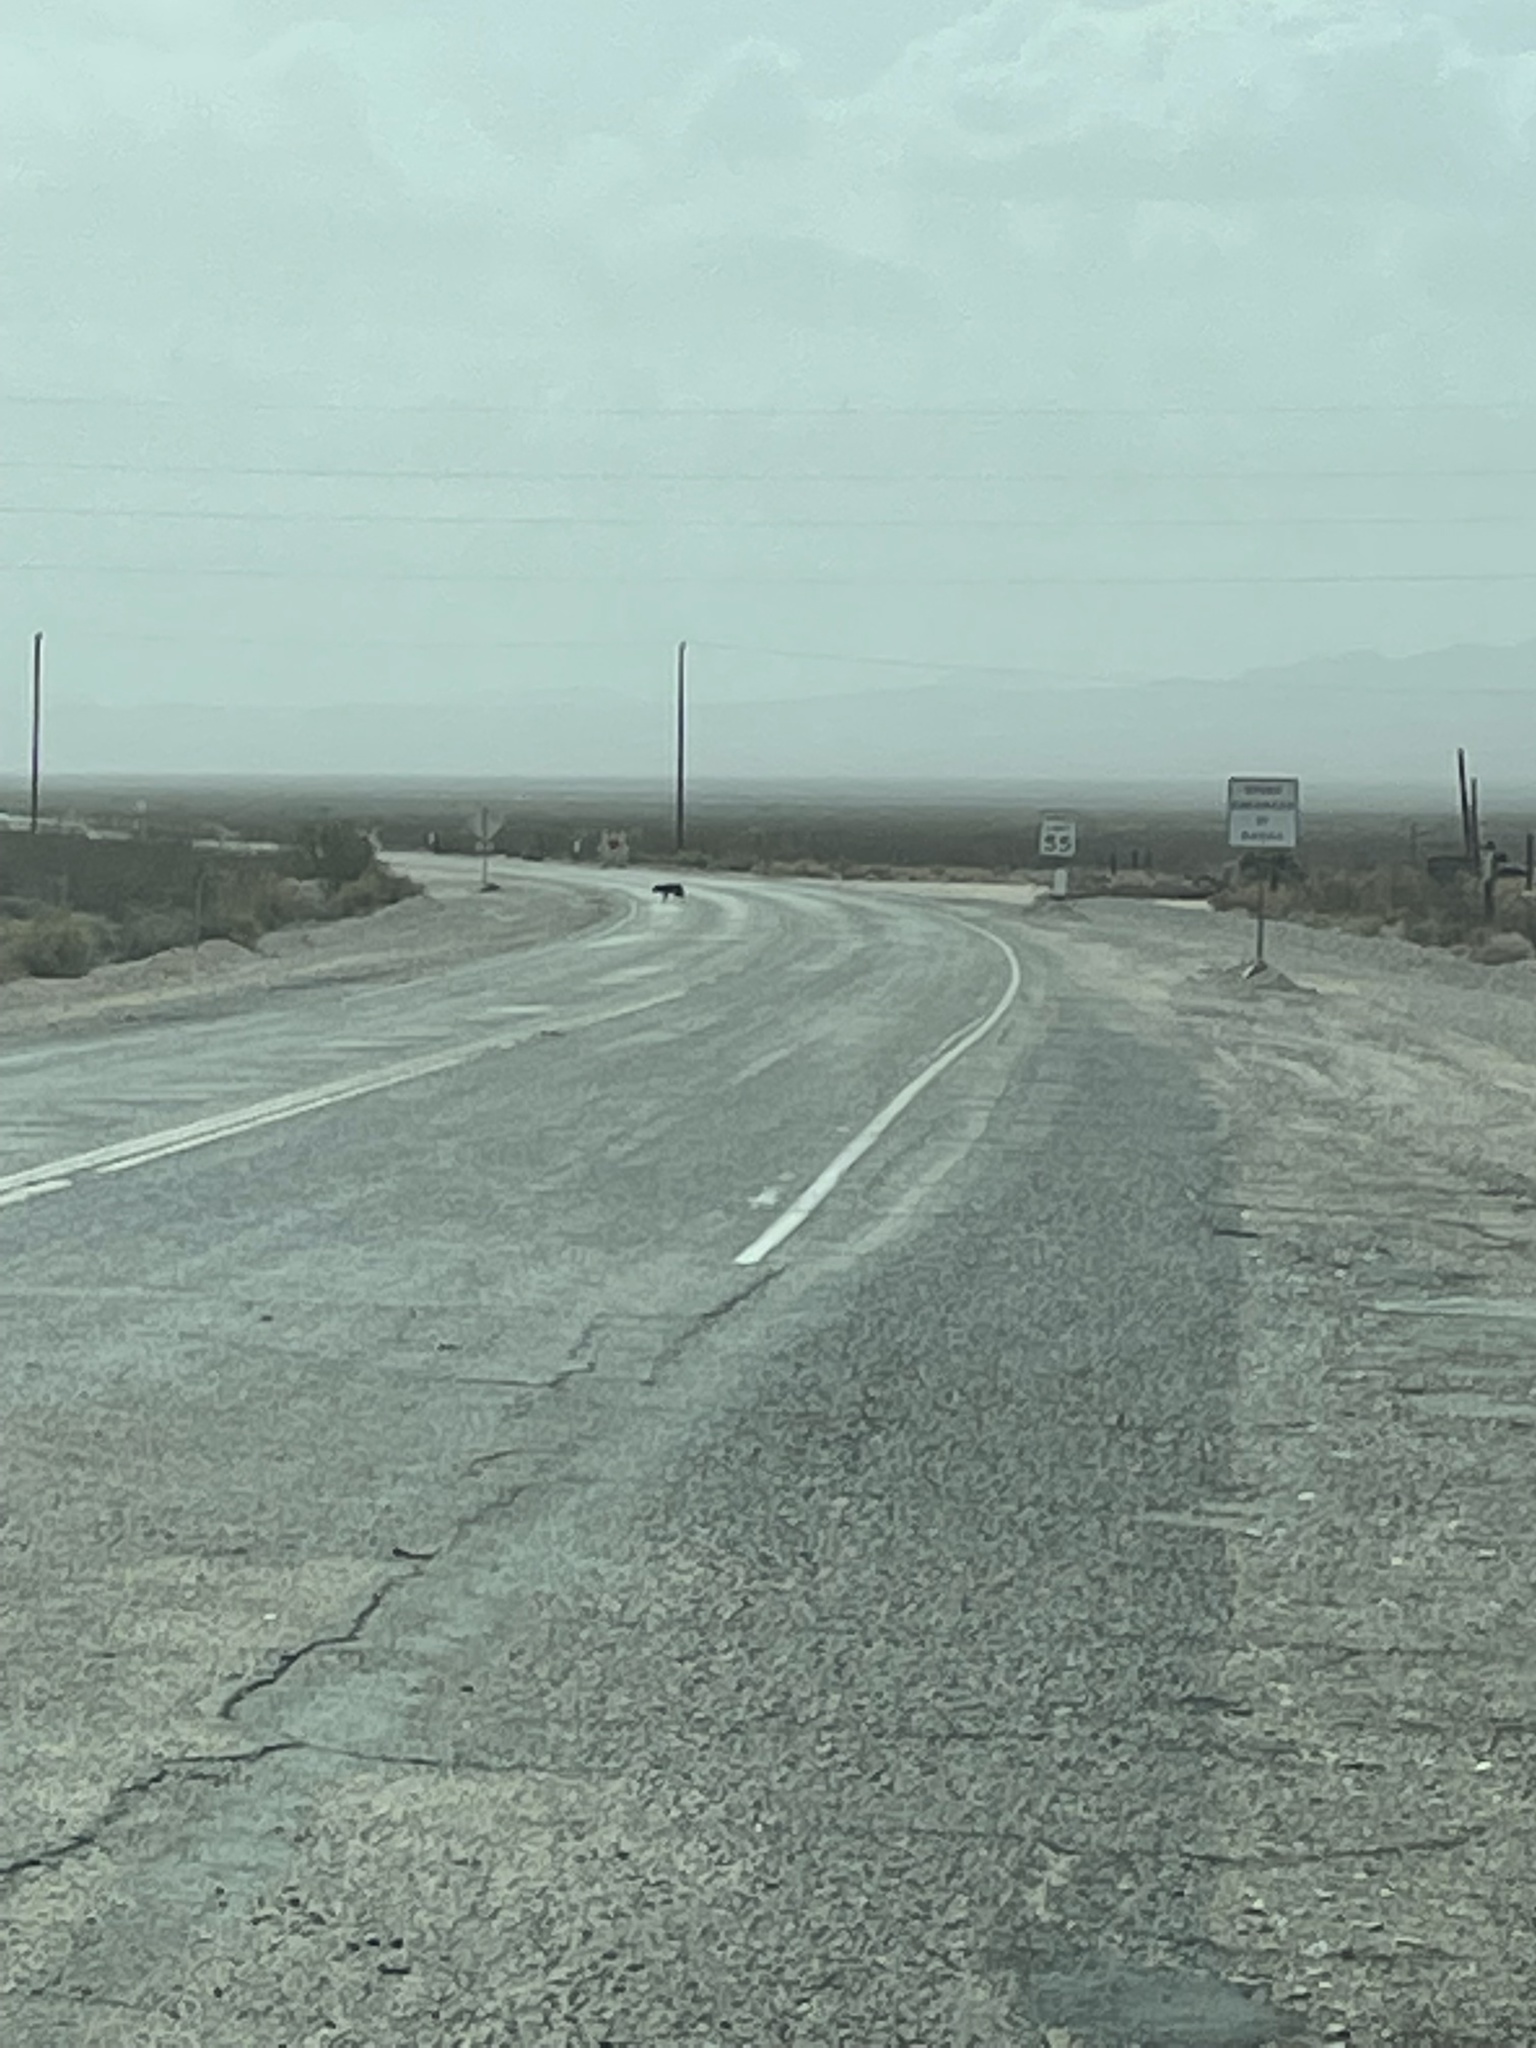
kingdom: Animalia
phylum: Chordata
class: Mammalia
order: Carnivora
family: Canidae
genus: Canis
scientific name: Canis latrans
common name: Coyote
